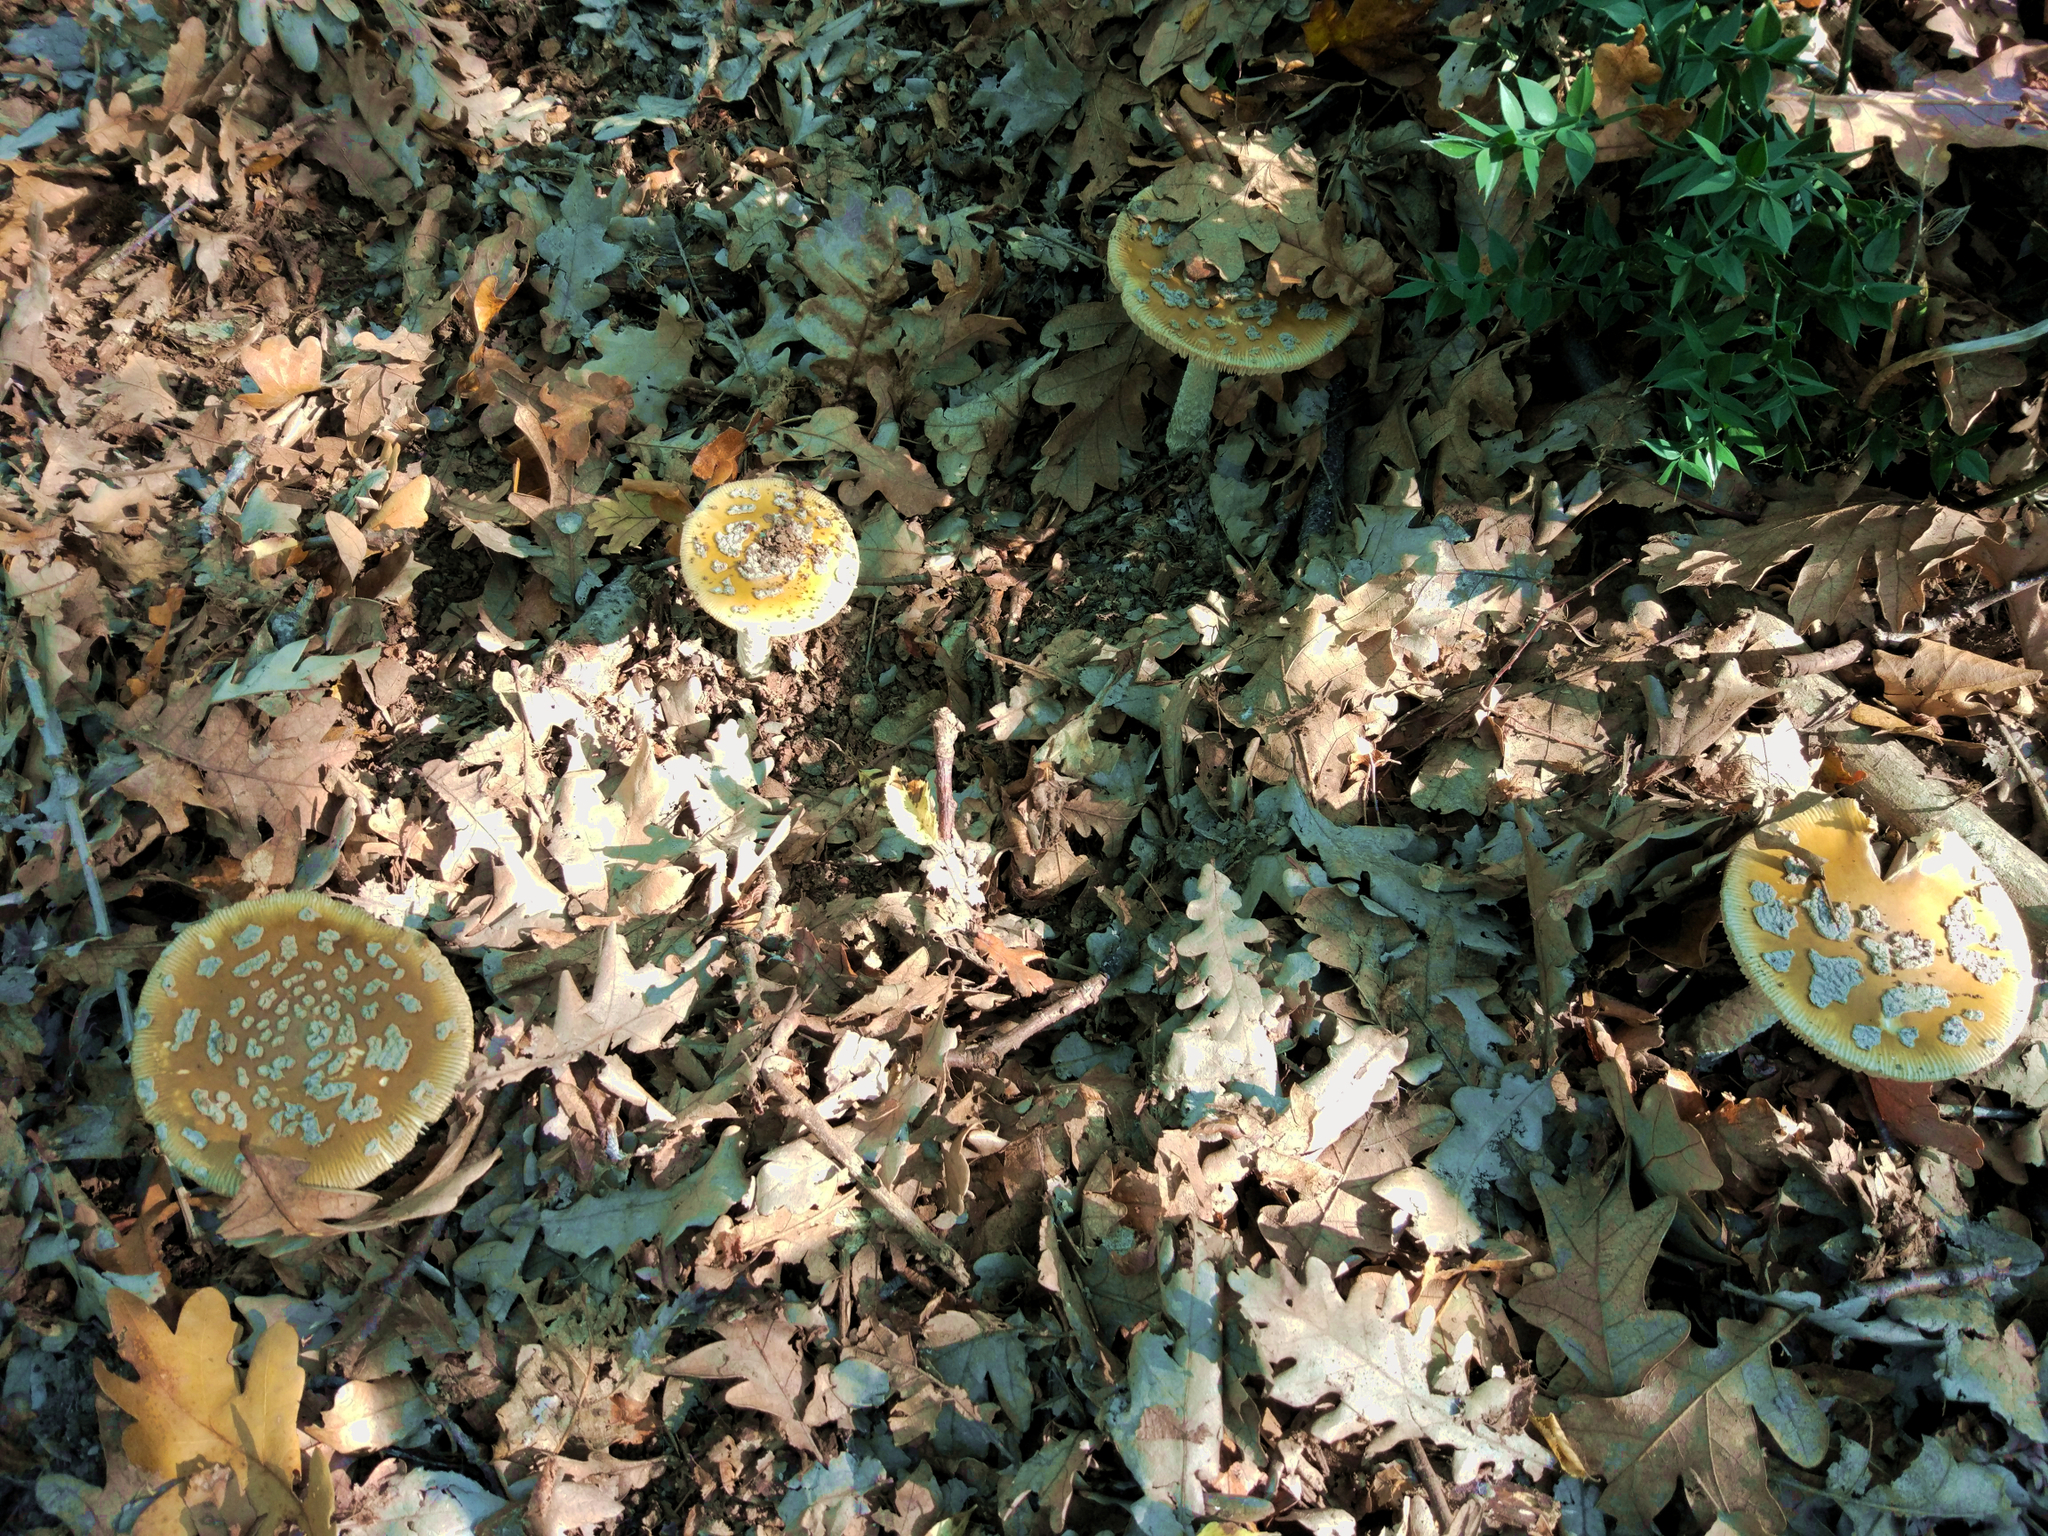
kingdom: Fungi
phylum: Basidiomycota
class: Agaricomycetes
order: Agaricales
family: Amanitaceae
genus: Amanita
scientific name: Amanita ceciliae
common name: Snakeskin grisette
